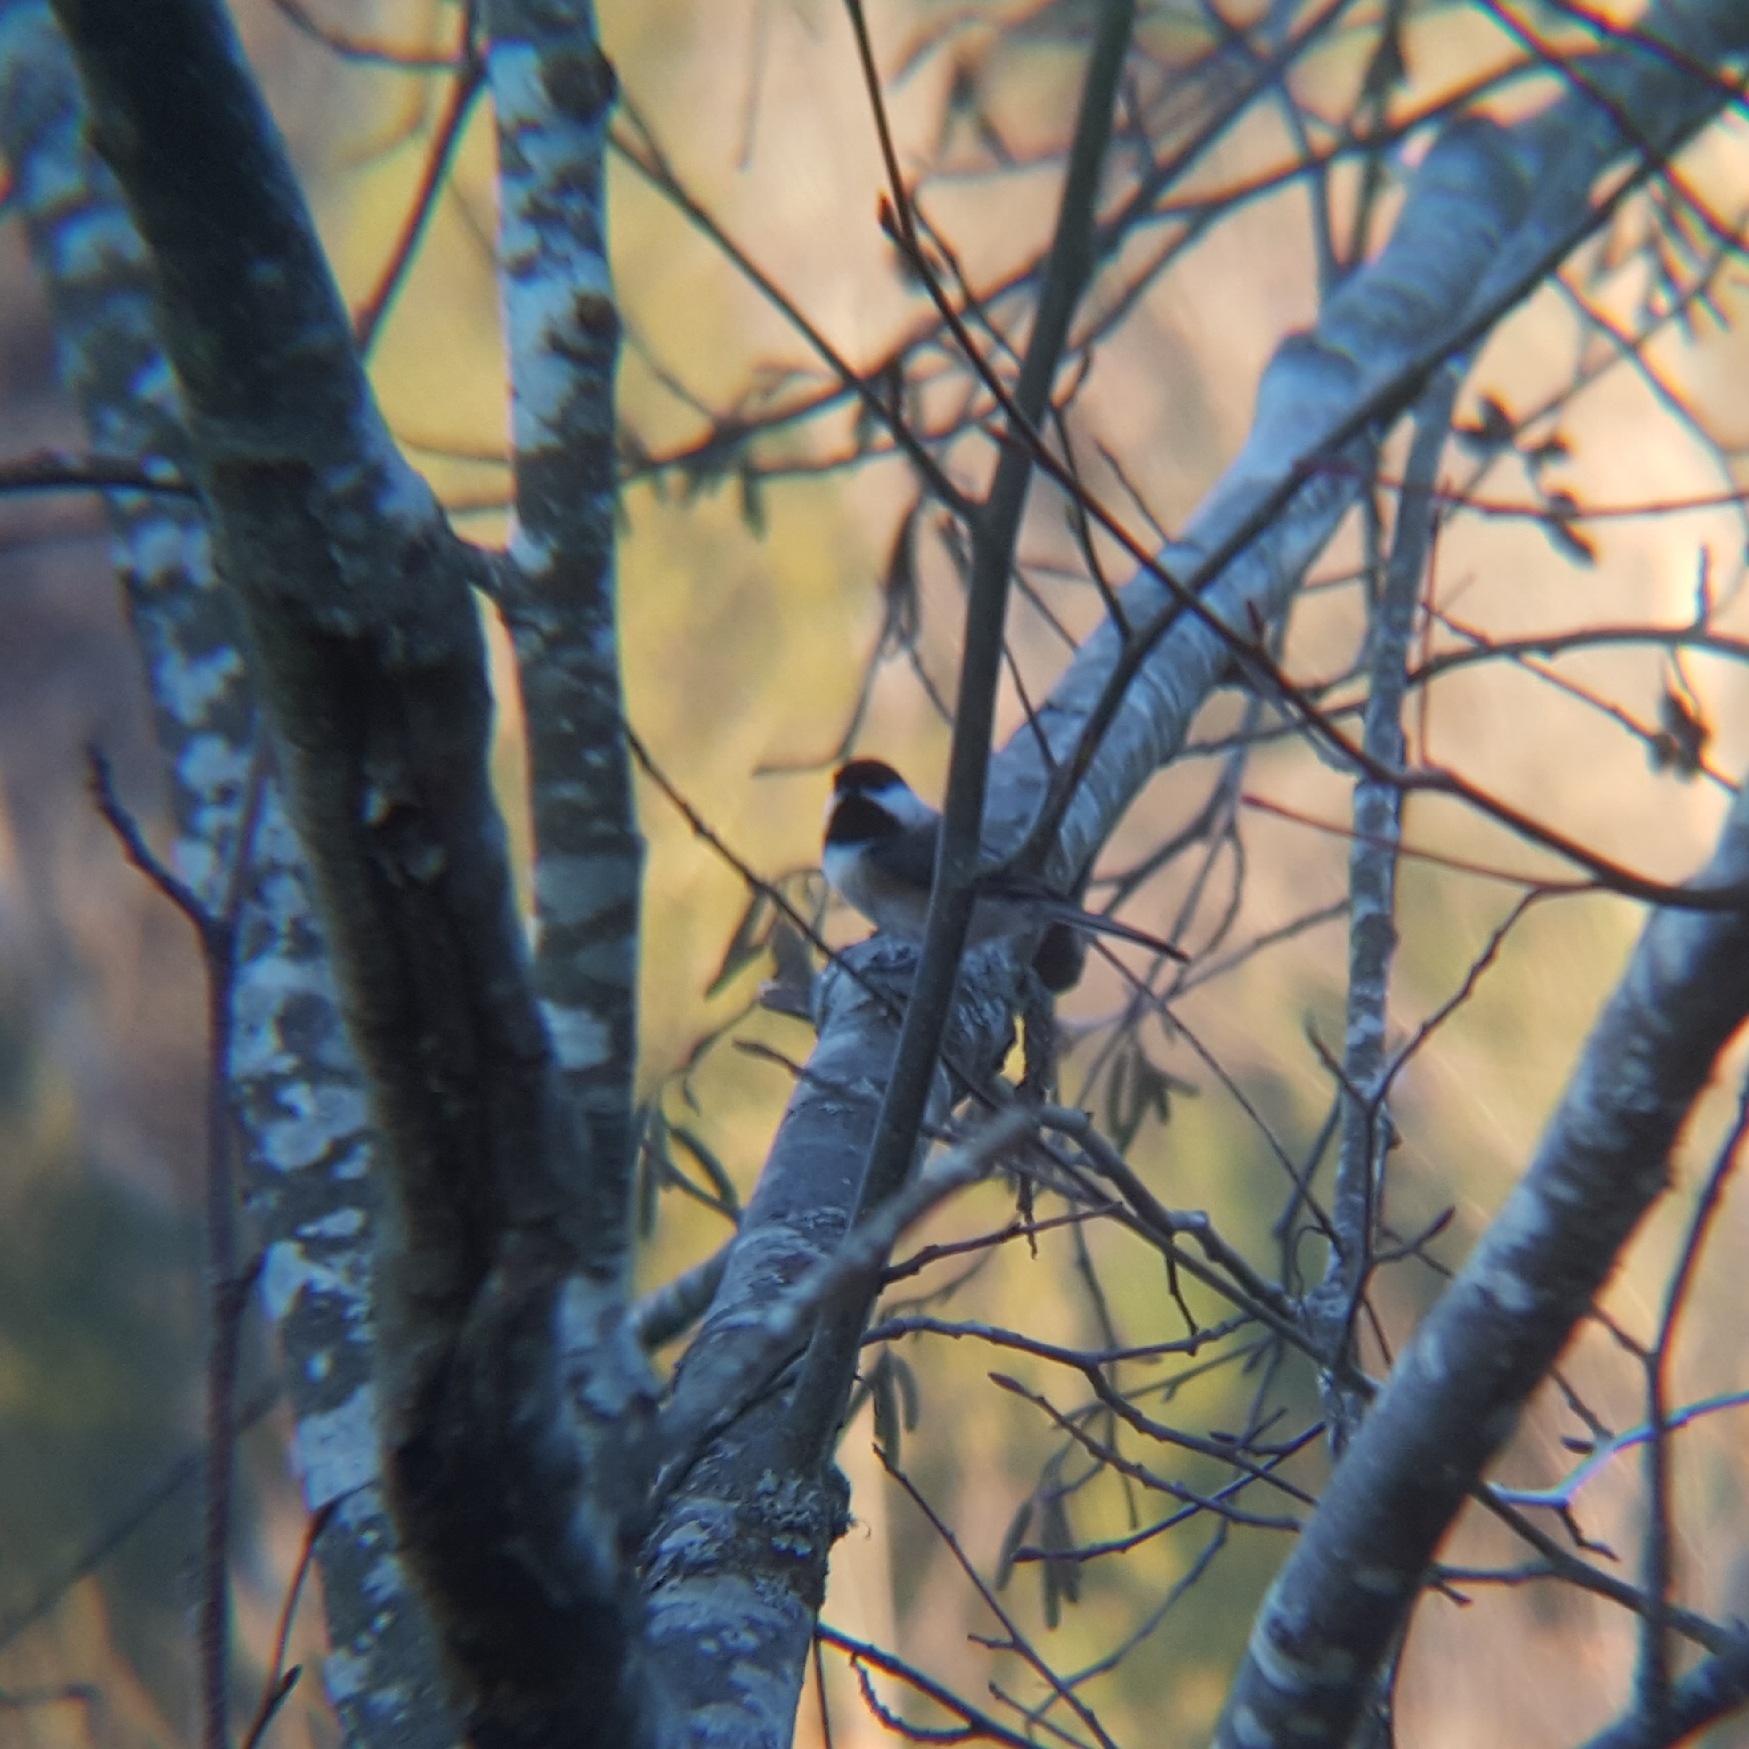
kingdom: Animalia
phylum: Chordata
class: Aves
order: Passeriformes
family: Paridae
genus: Poecile
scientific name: Poecile atricapillus
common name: Black-capped chickadee
